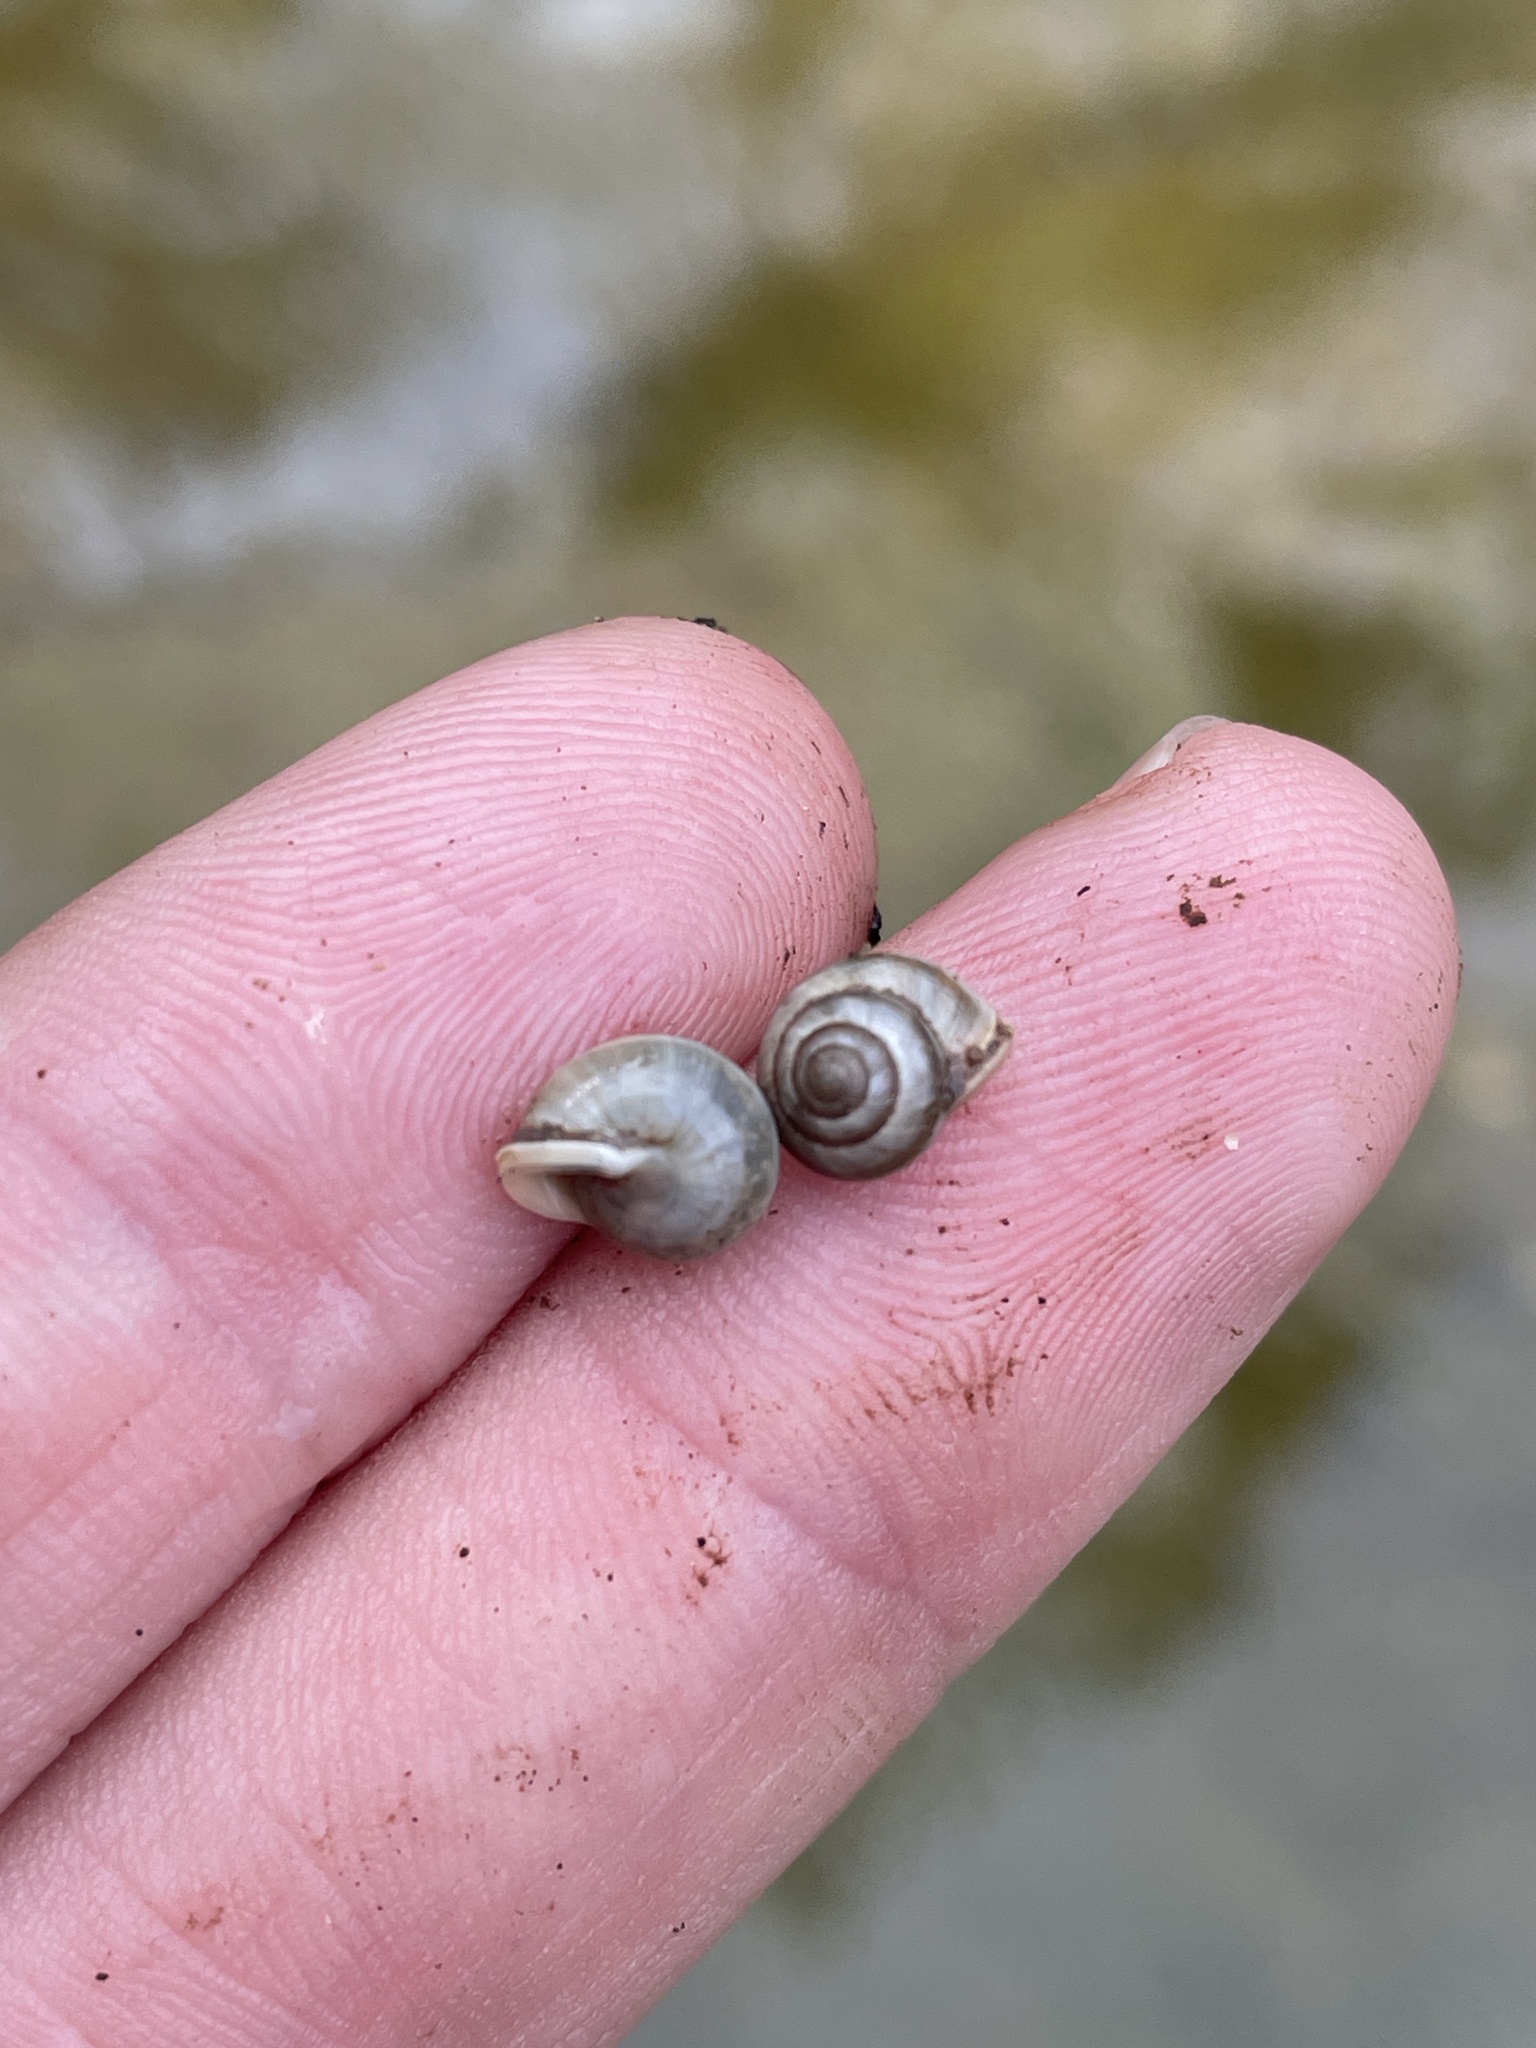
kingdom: Animalia
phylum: Mollusca
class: Gastropoda
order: Cycloneritida
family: Helicinidae
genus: Helicina
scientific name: Helicina orbiculata
